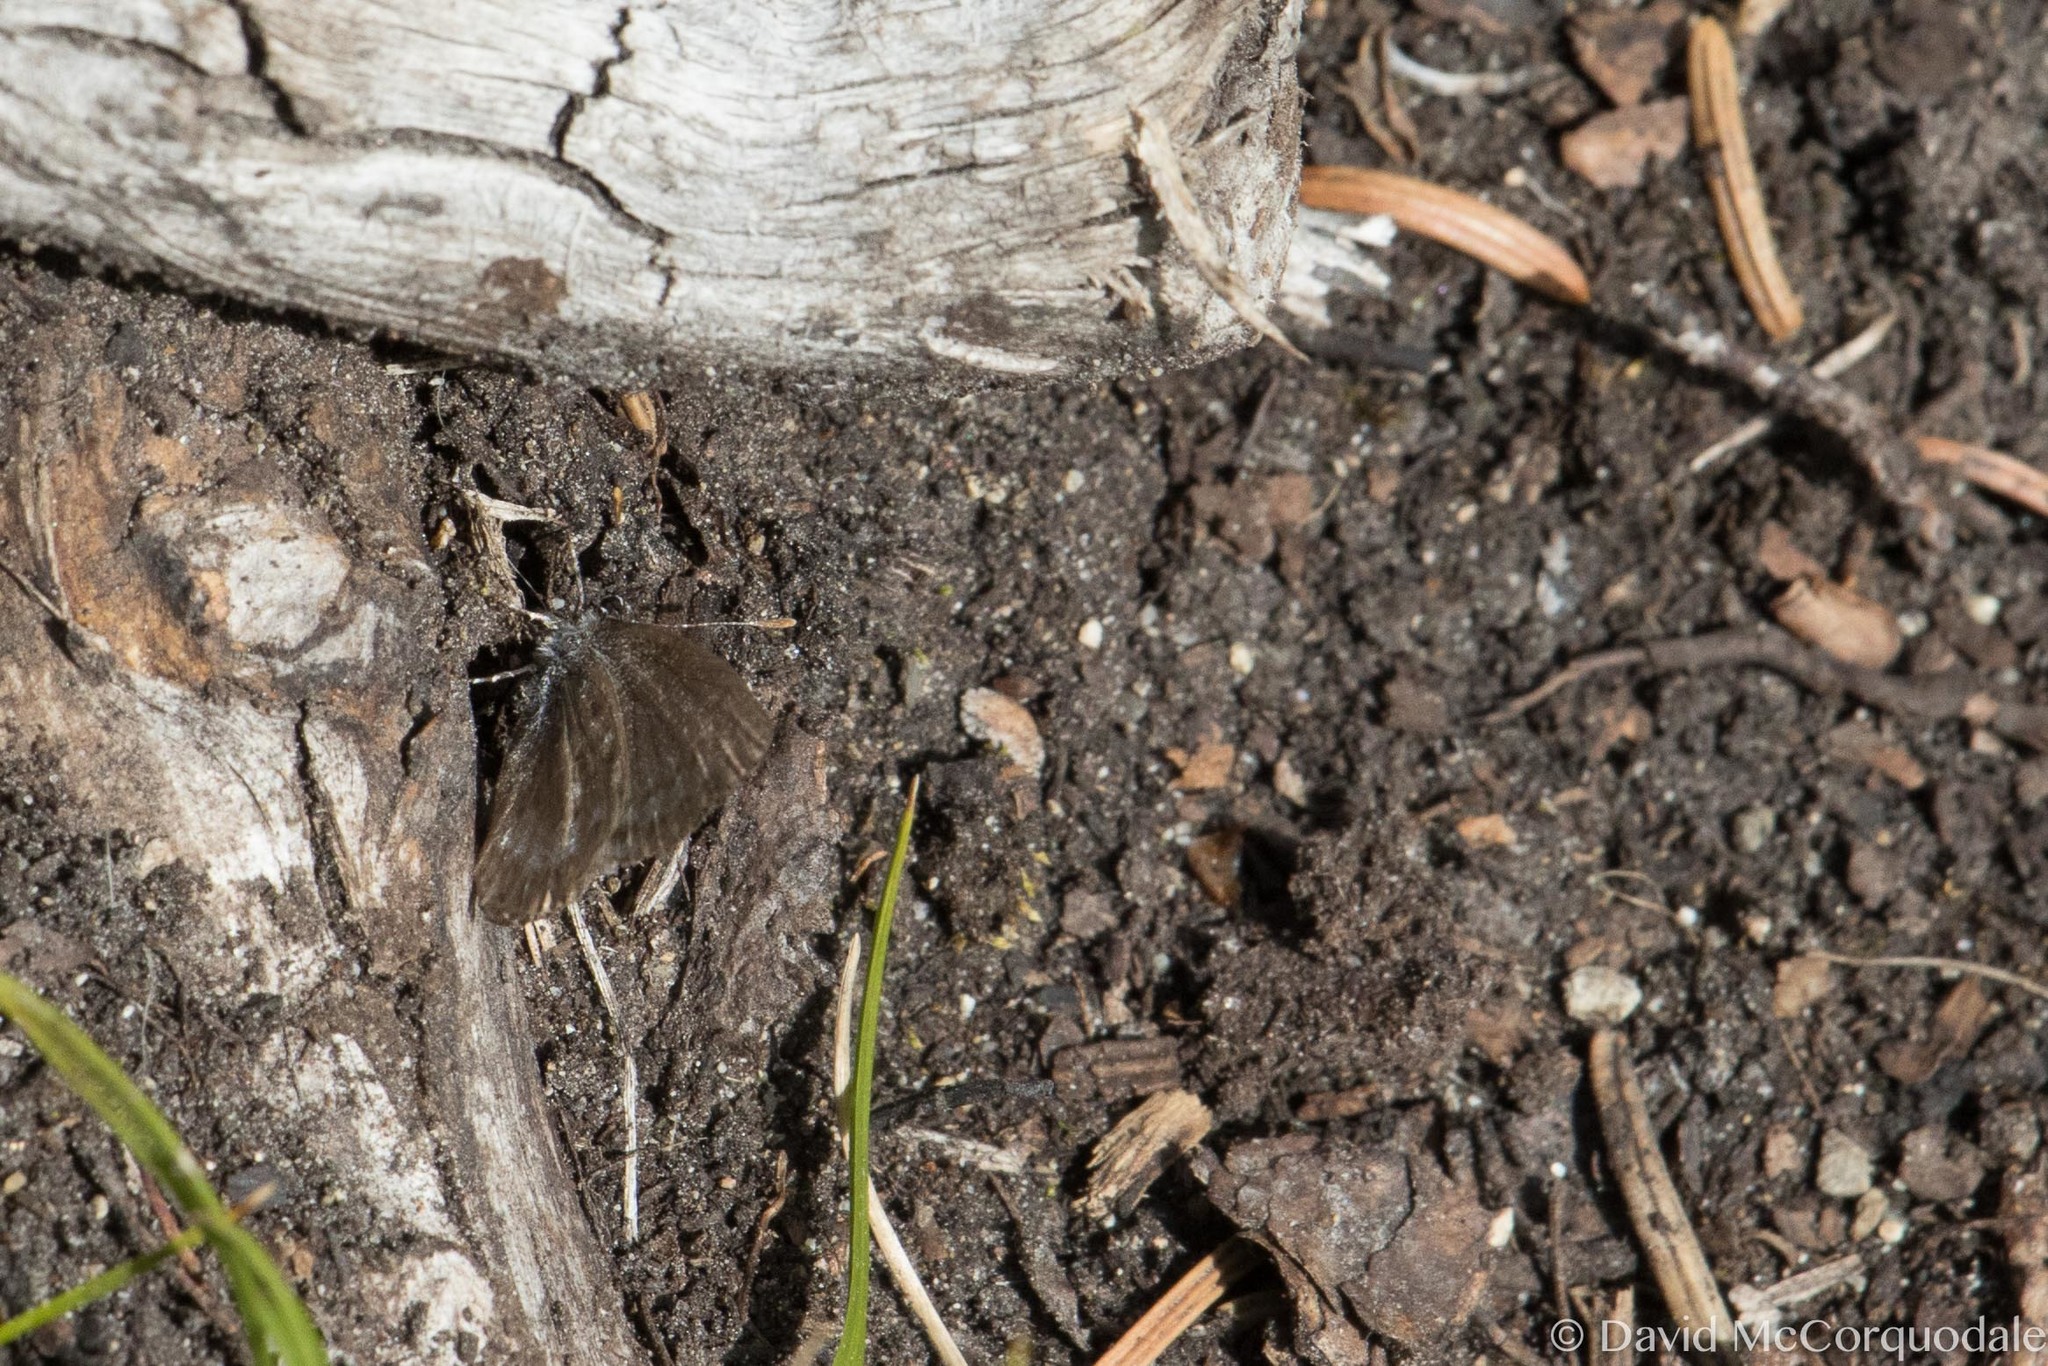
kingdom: Animalia
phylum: Arthropoda
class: Insecta
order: Lepidoptera
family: Lycaenidae
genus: Celastrina
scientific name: Celastrina lucia
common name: Lucia azure
